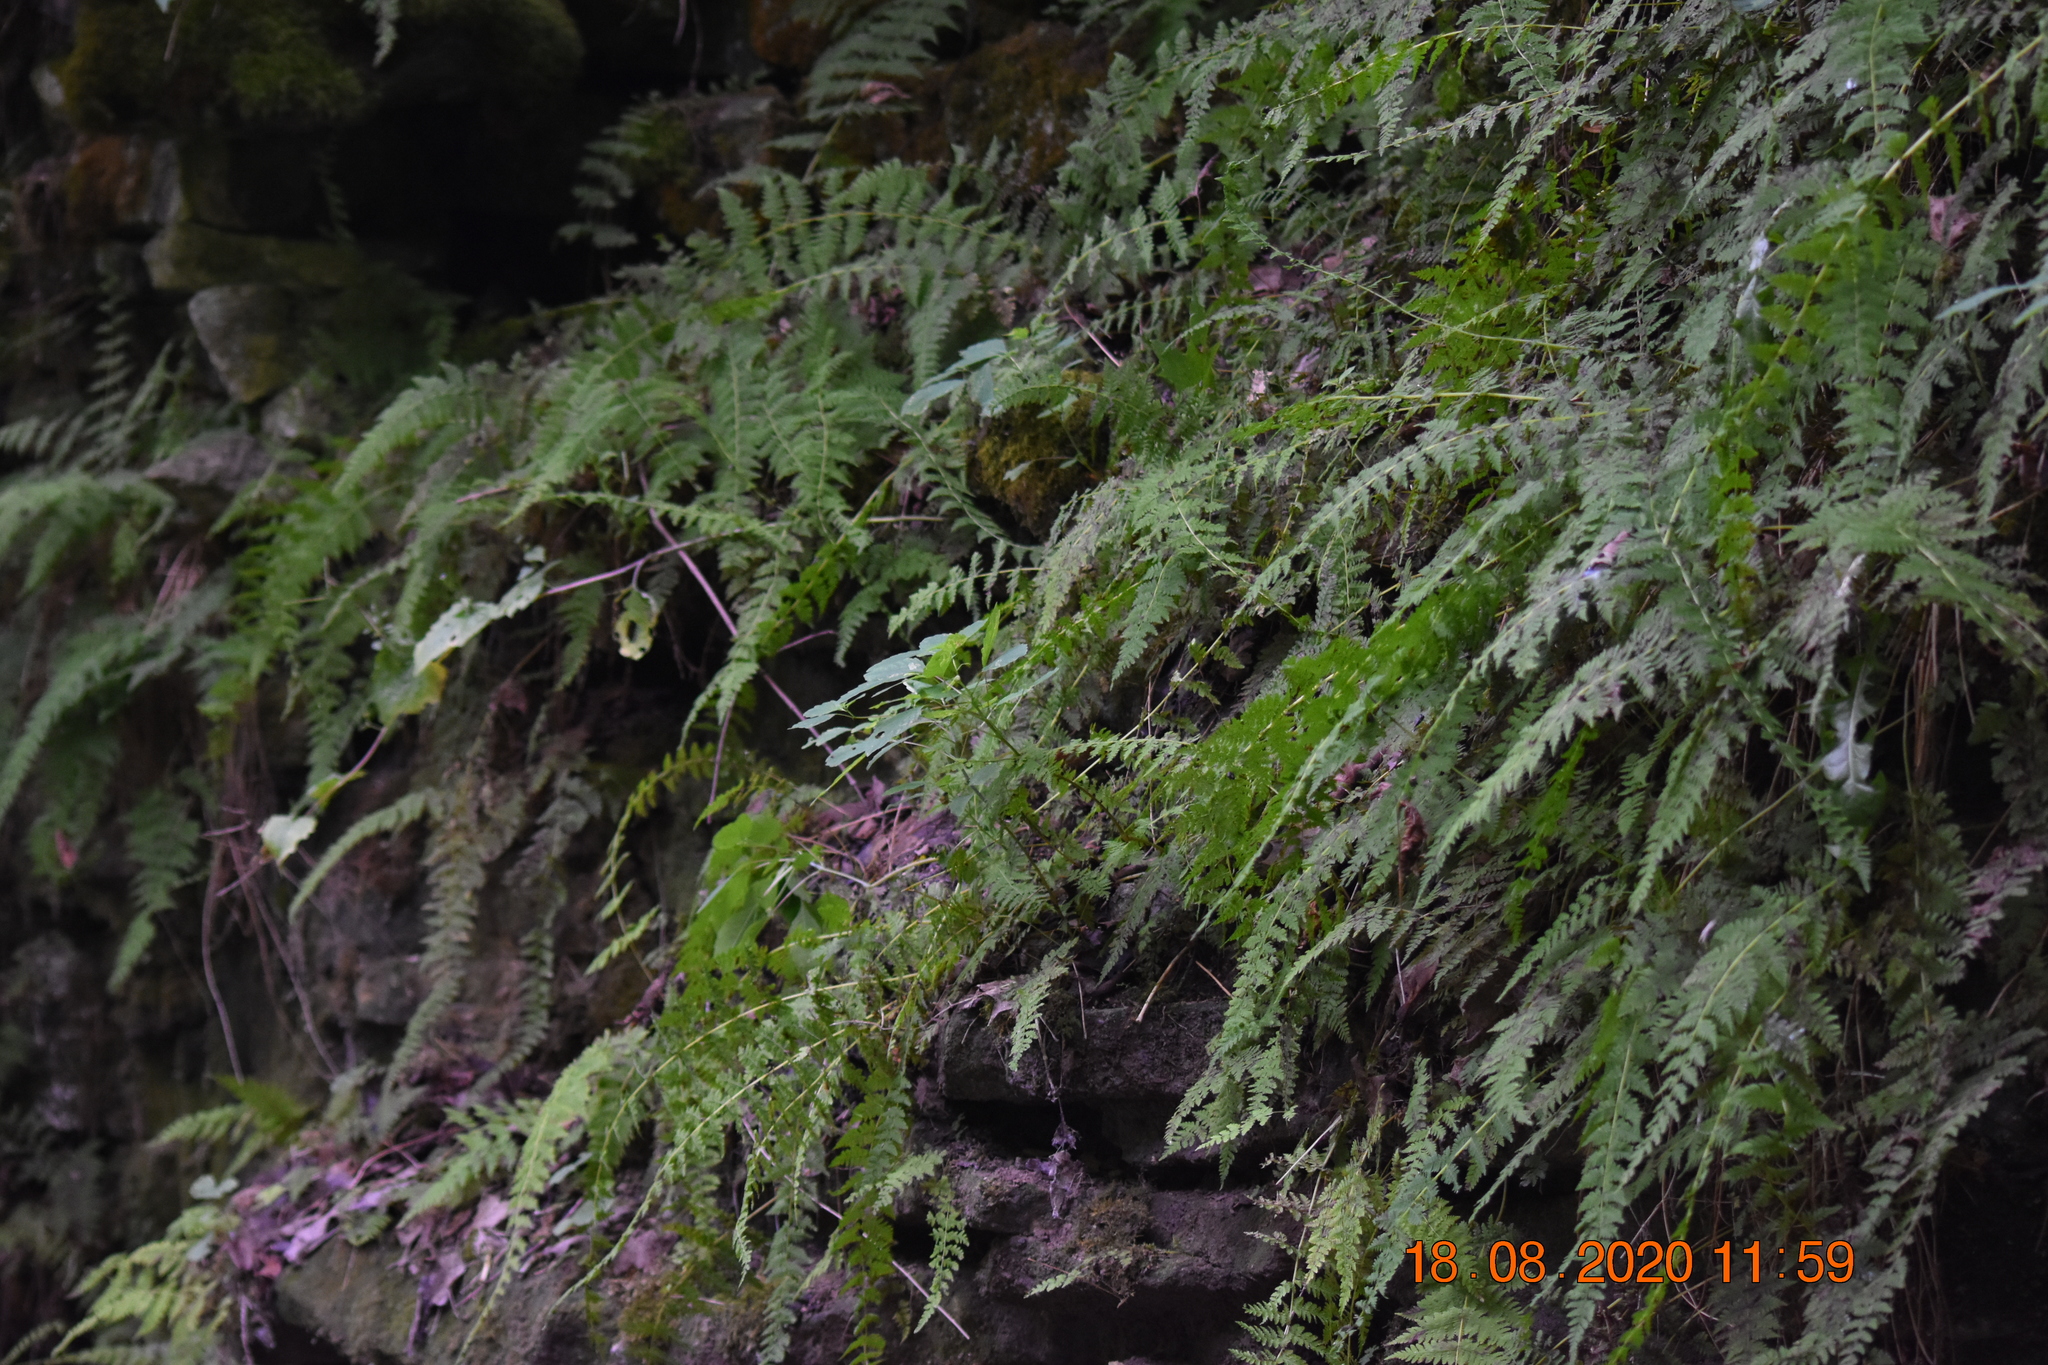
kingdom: Plantae
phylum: Tracheophyta
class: Polypodiopsida
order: Polypodiales
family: Cystopteridaceae
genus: Cystopteris
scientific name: Cystopteris bulbifera
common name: Bulblet bladder fern
